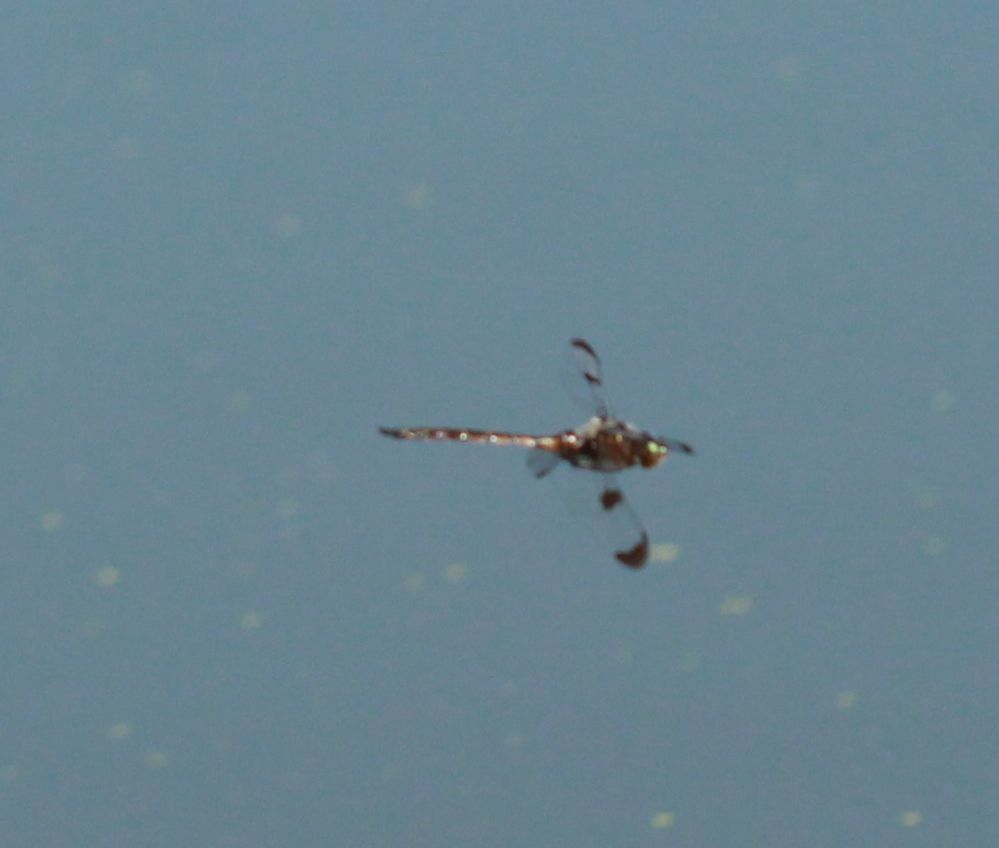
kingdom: Animalia
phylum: Arthropoda
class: Insecta
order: Odonata
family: Corduliidae
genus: Epitheca
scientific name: Epitheca princeps
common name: Prince baskettail
